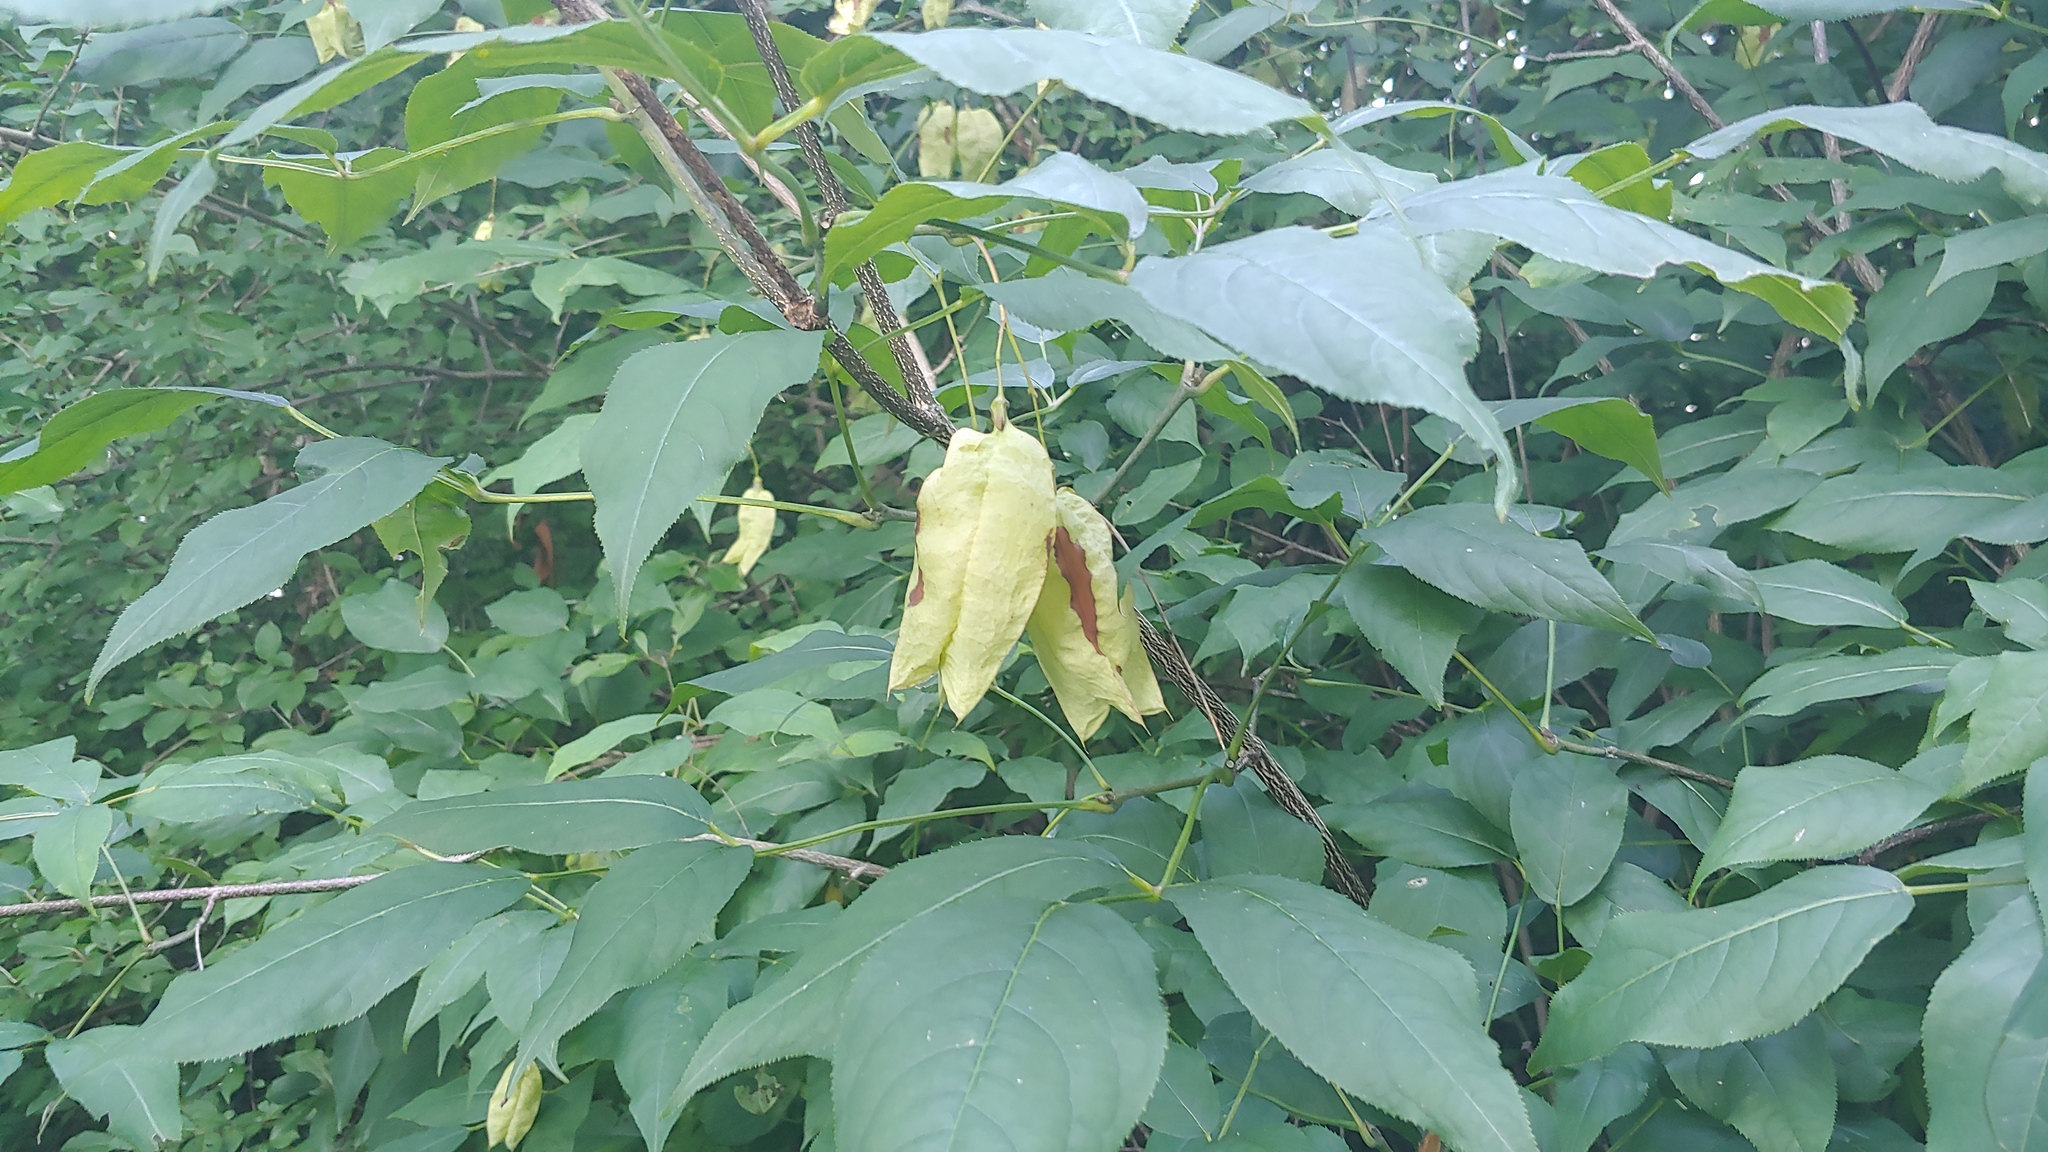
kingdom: Plantae
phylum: Tracheophyta
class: Magnoliopsida
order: Crossosomatales
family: Staphyleaceae
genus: Staphylea
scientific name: Staphylea trifolia
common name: American bladdernut
